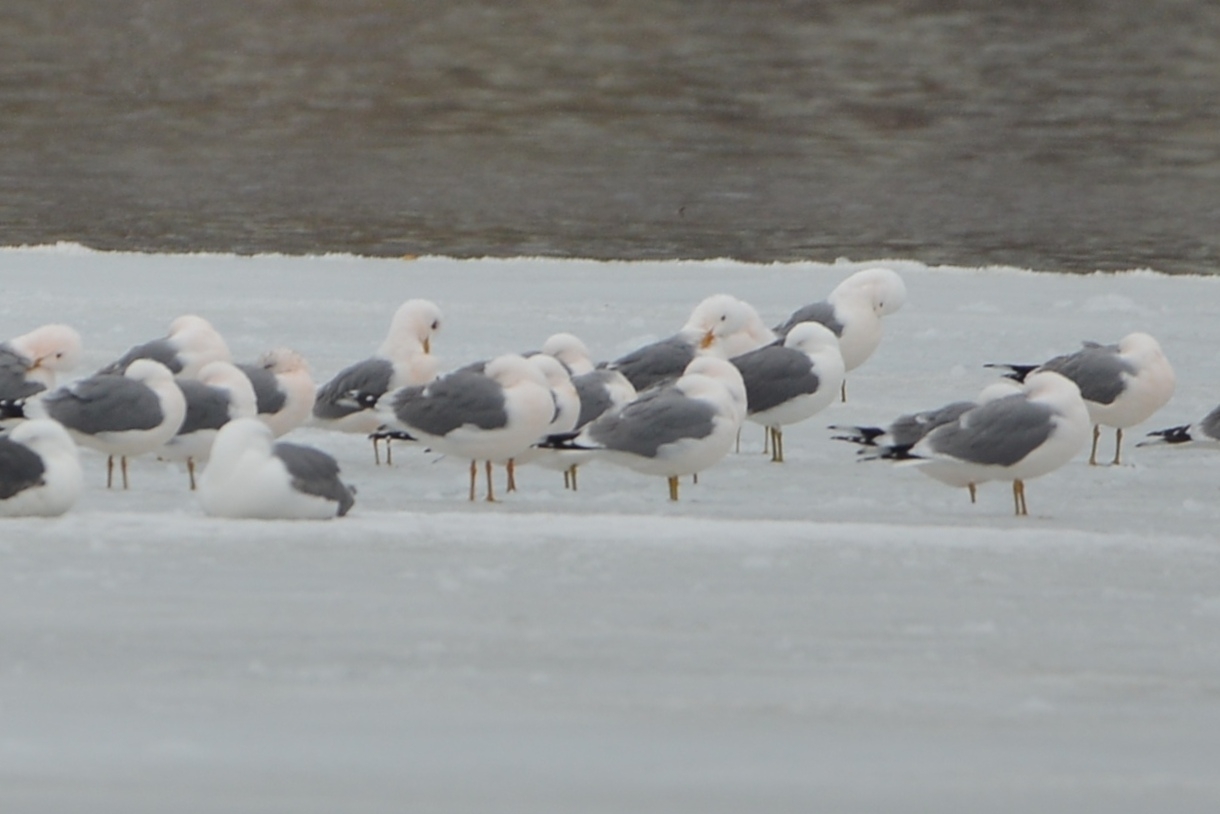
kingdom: Animalia
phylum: Chordata
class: Aves
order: Charadriiformes
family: Laridae
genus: Larus
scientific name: Larus canus
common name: Mew gull
